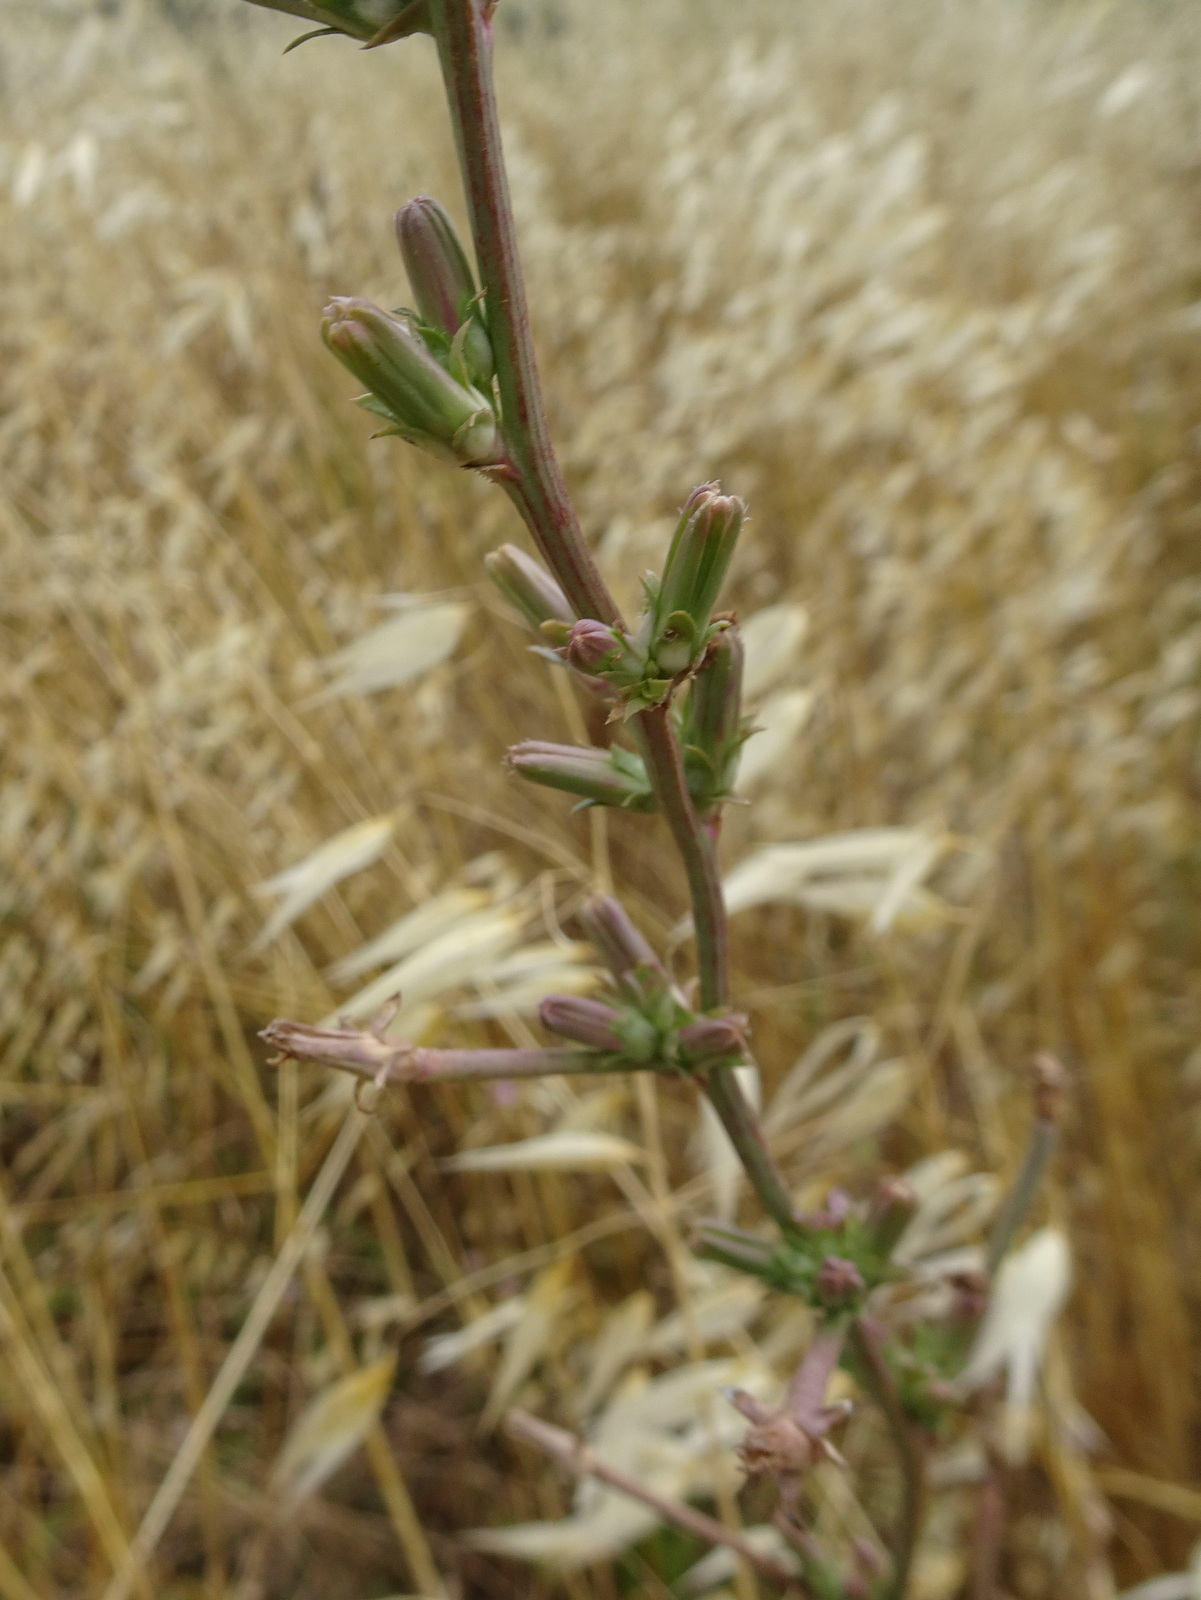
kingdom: Plantae
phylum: Tracheophyta
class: Magnoliopsida
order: Asterales
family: Asteraceae
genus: Cichorium
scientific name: Cichorium intybus
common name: Chicory
